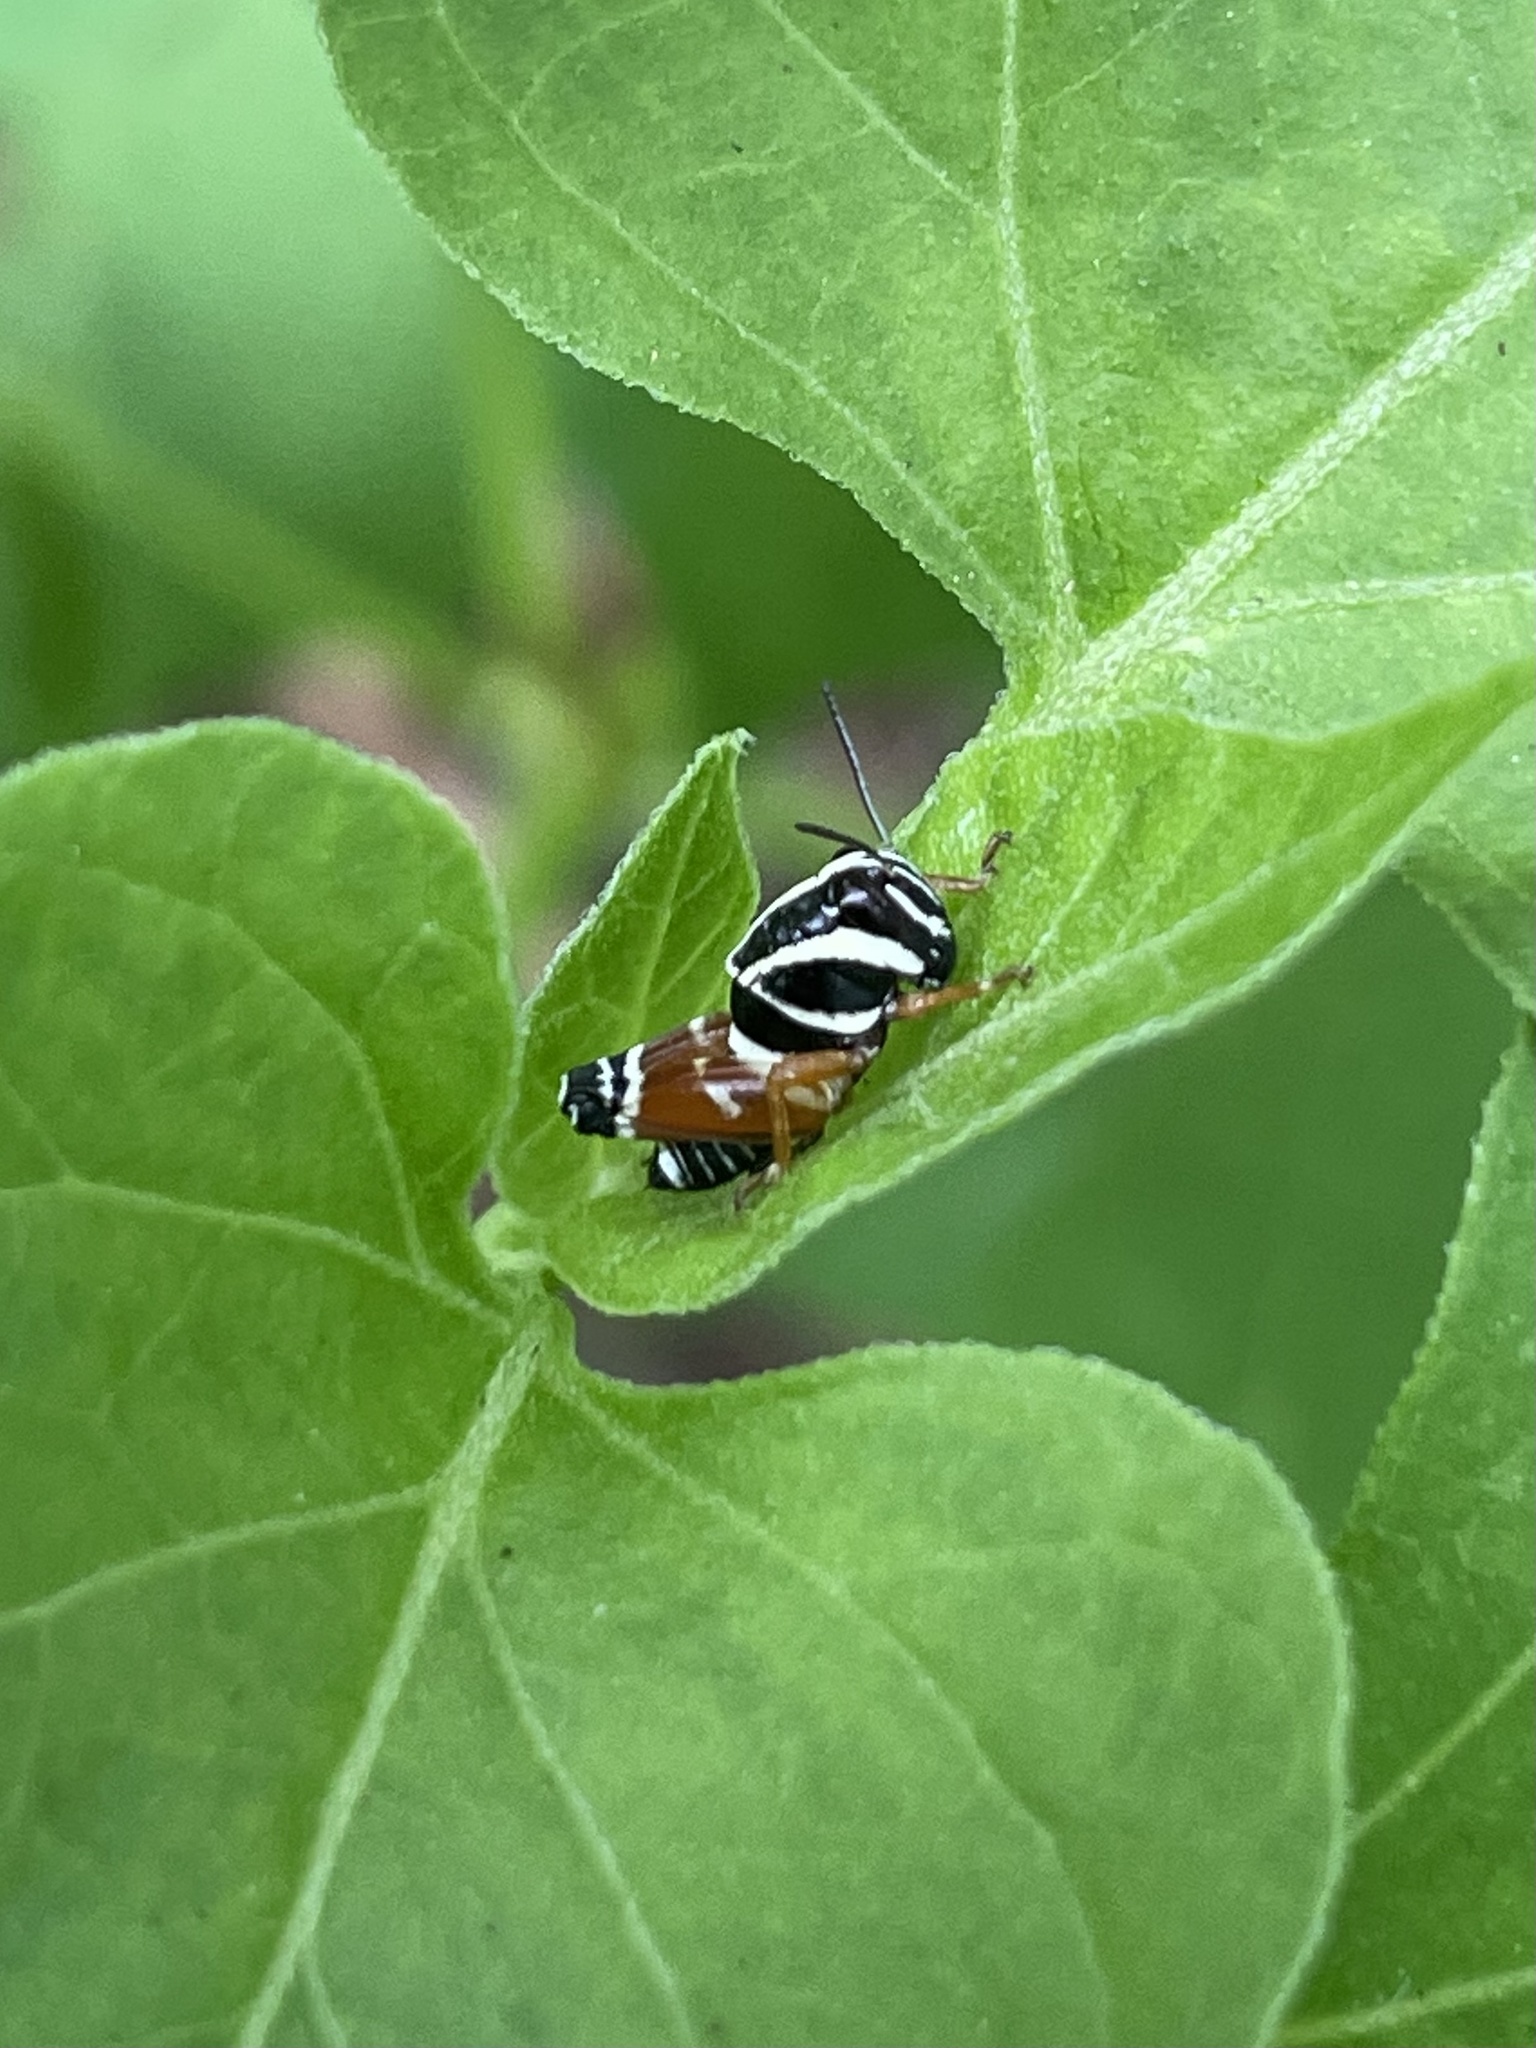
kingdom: Animalia
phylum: Arthropoda
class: Insecta
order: Orthoptera
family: Acrididae
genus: Aidemona
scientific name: Aidemona azteca
